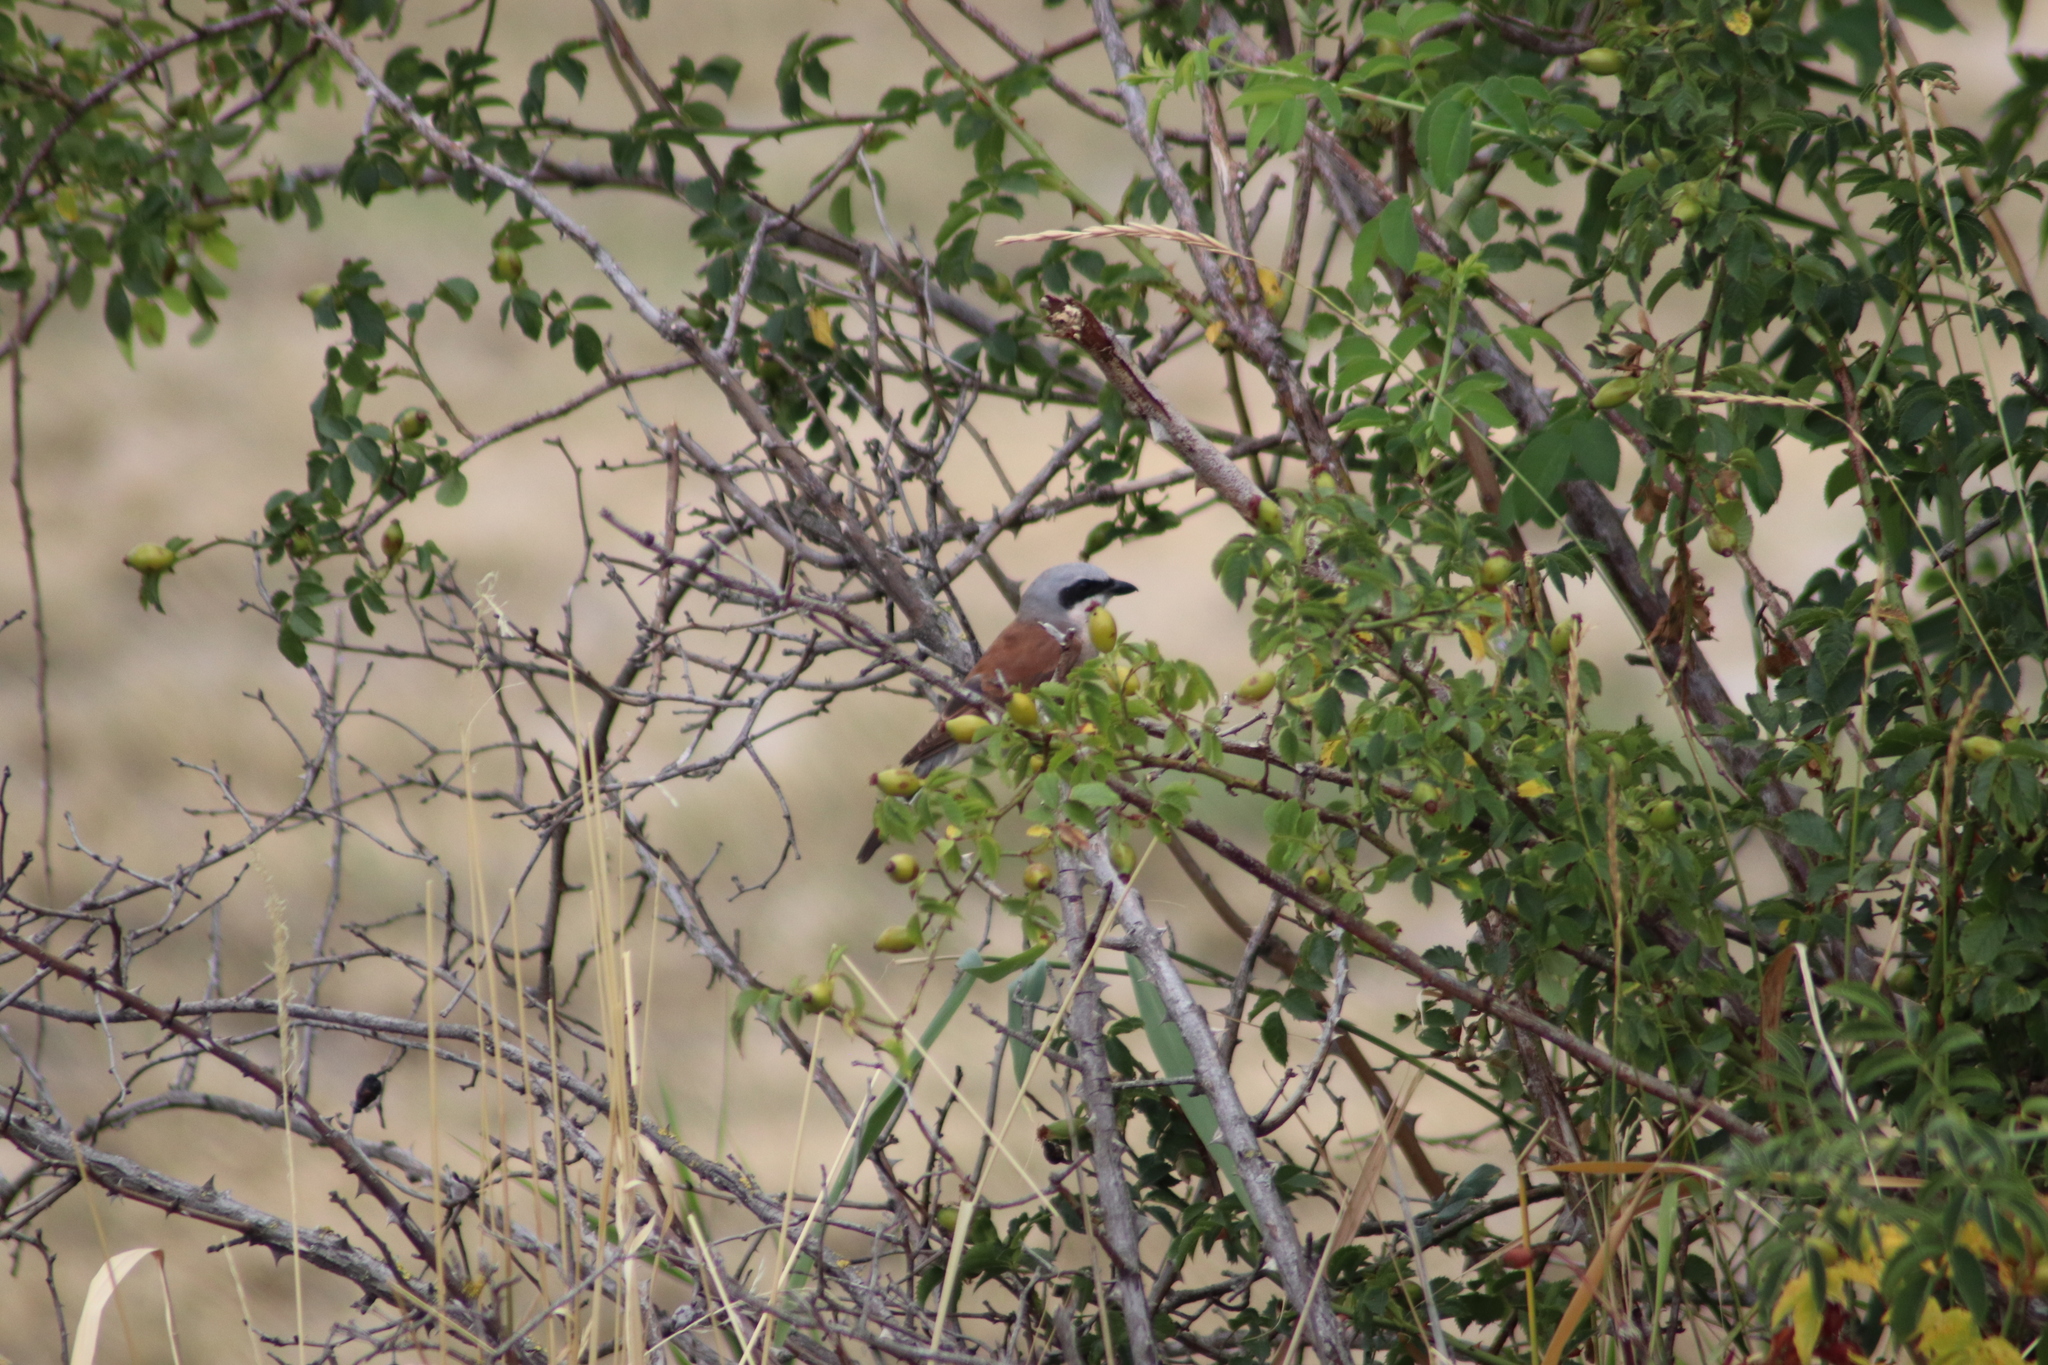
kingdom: Animalia
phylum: Chordata
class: Aves
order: Passeriformes
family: Laniidae
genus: Lanius
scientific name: Lanius collurio
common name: Red-backed shrike
